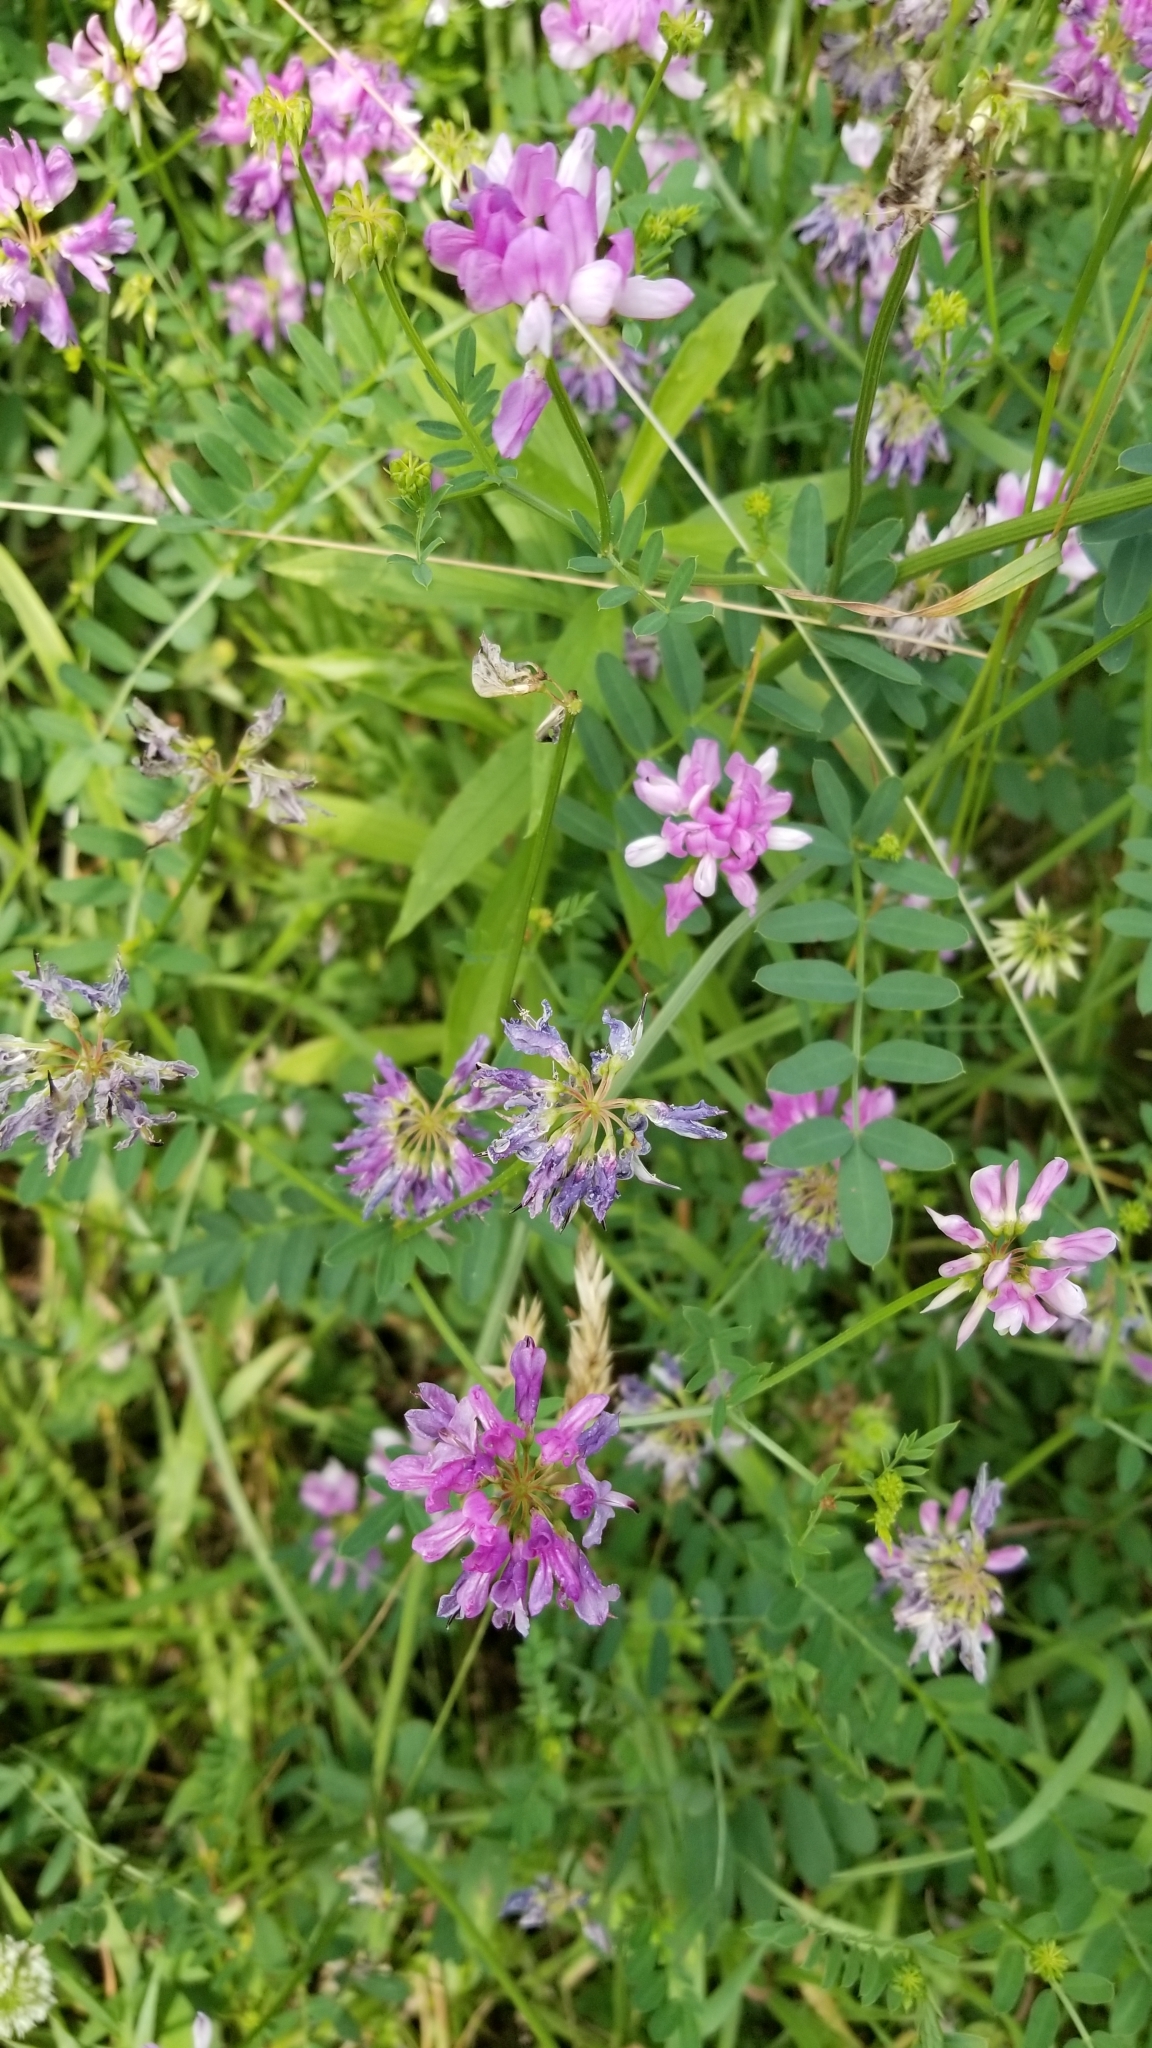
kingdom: Plantae
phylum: Tracheophyta
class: Magnoliopsida
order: Fabales
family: Fabaceae
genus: Coronilla
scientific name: Coronilla varia
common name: Crownvetch
